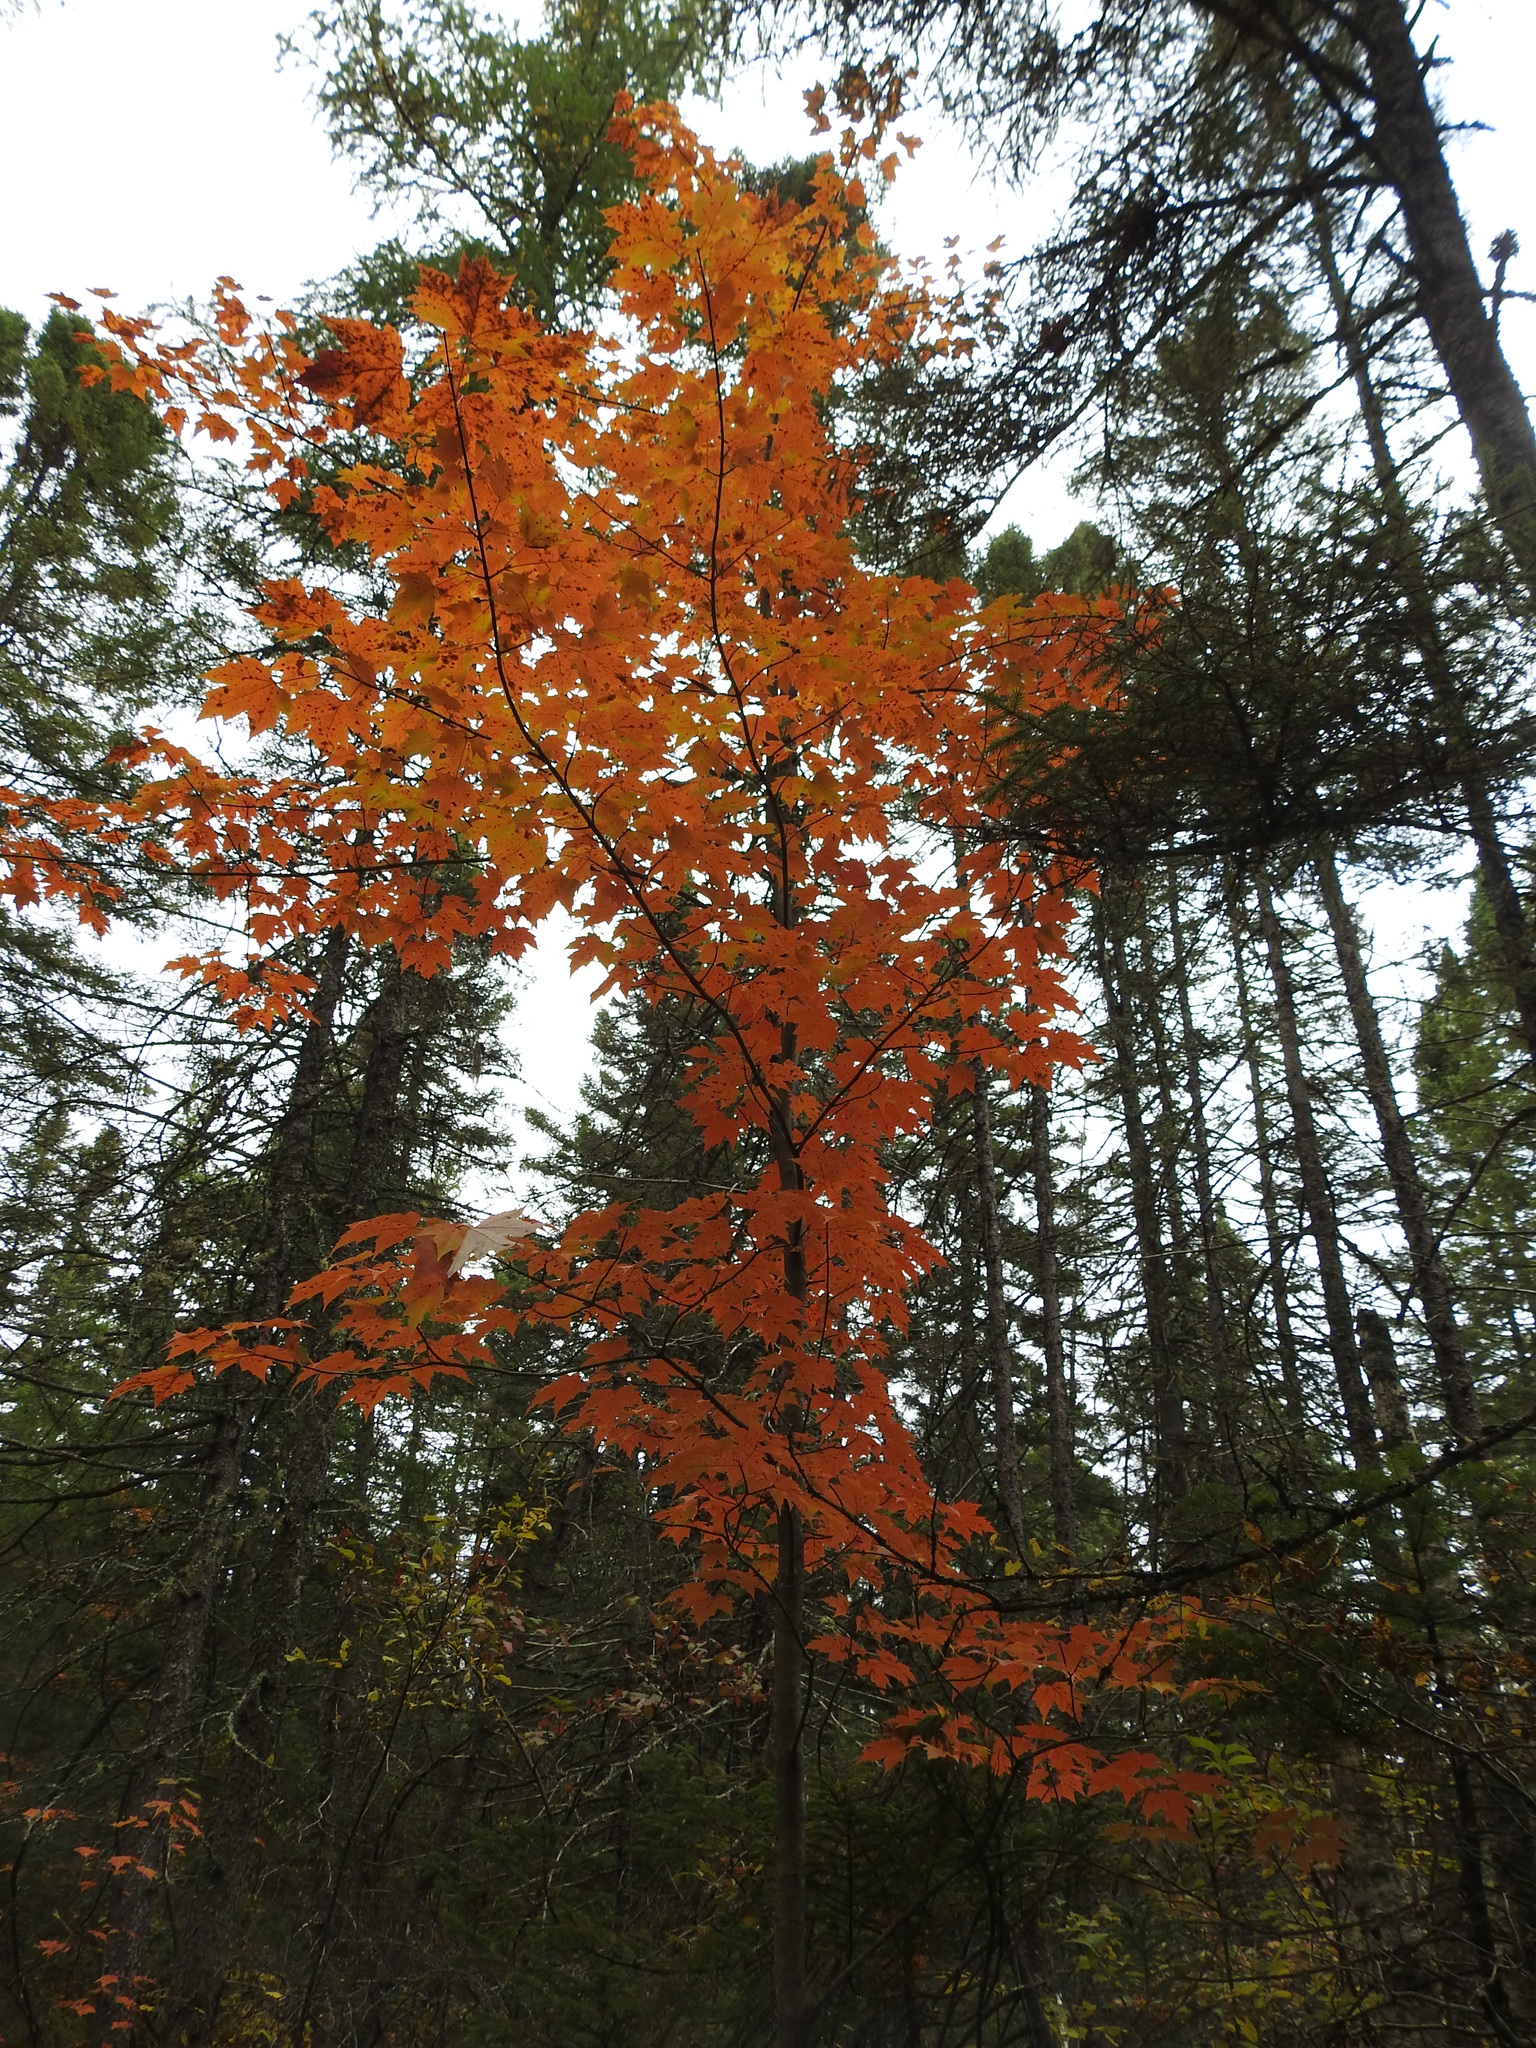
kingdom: Plantae
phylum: Tracheophyta
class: Magnoliopsida
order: Sapindales
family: Sapindaceae
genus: Acer
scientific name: Acer rubrum
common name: Red maple
